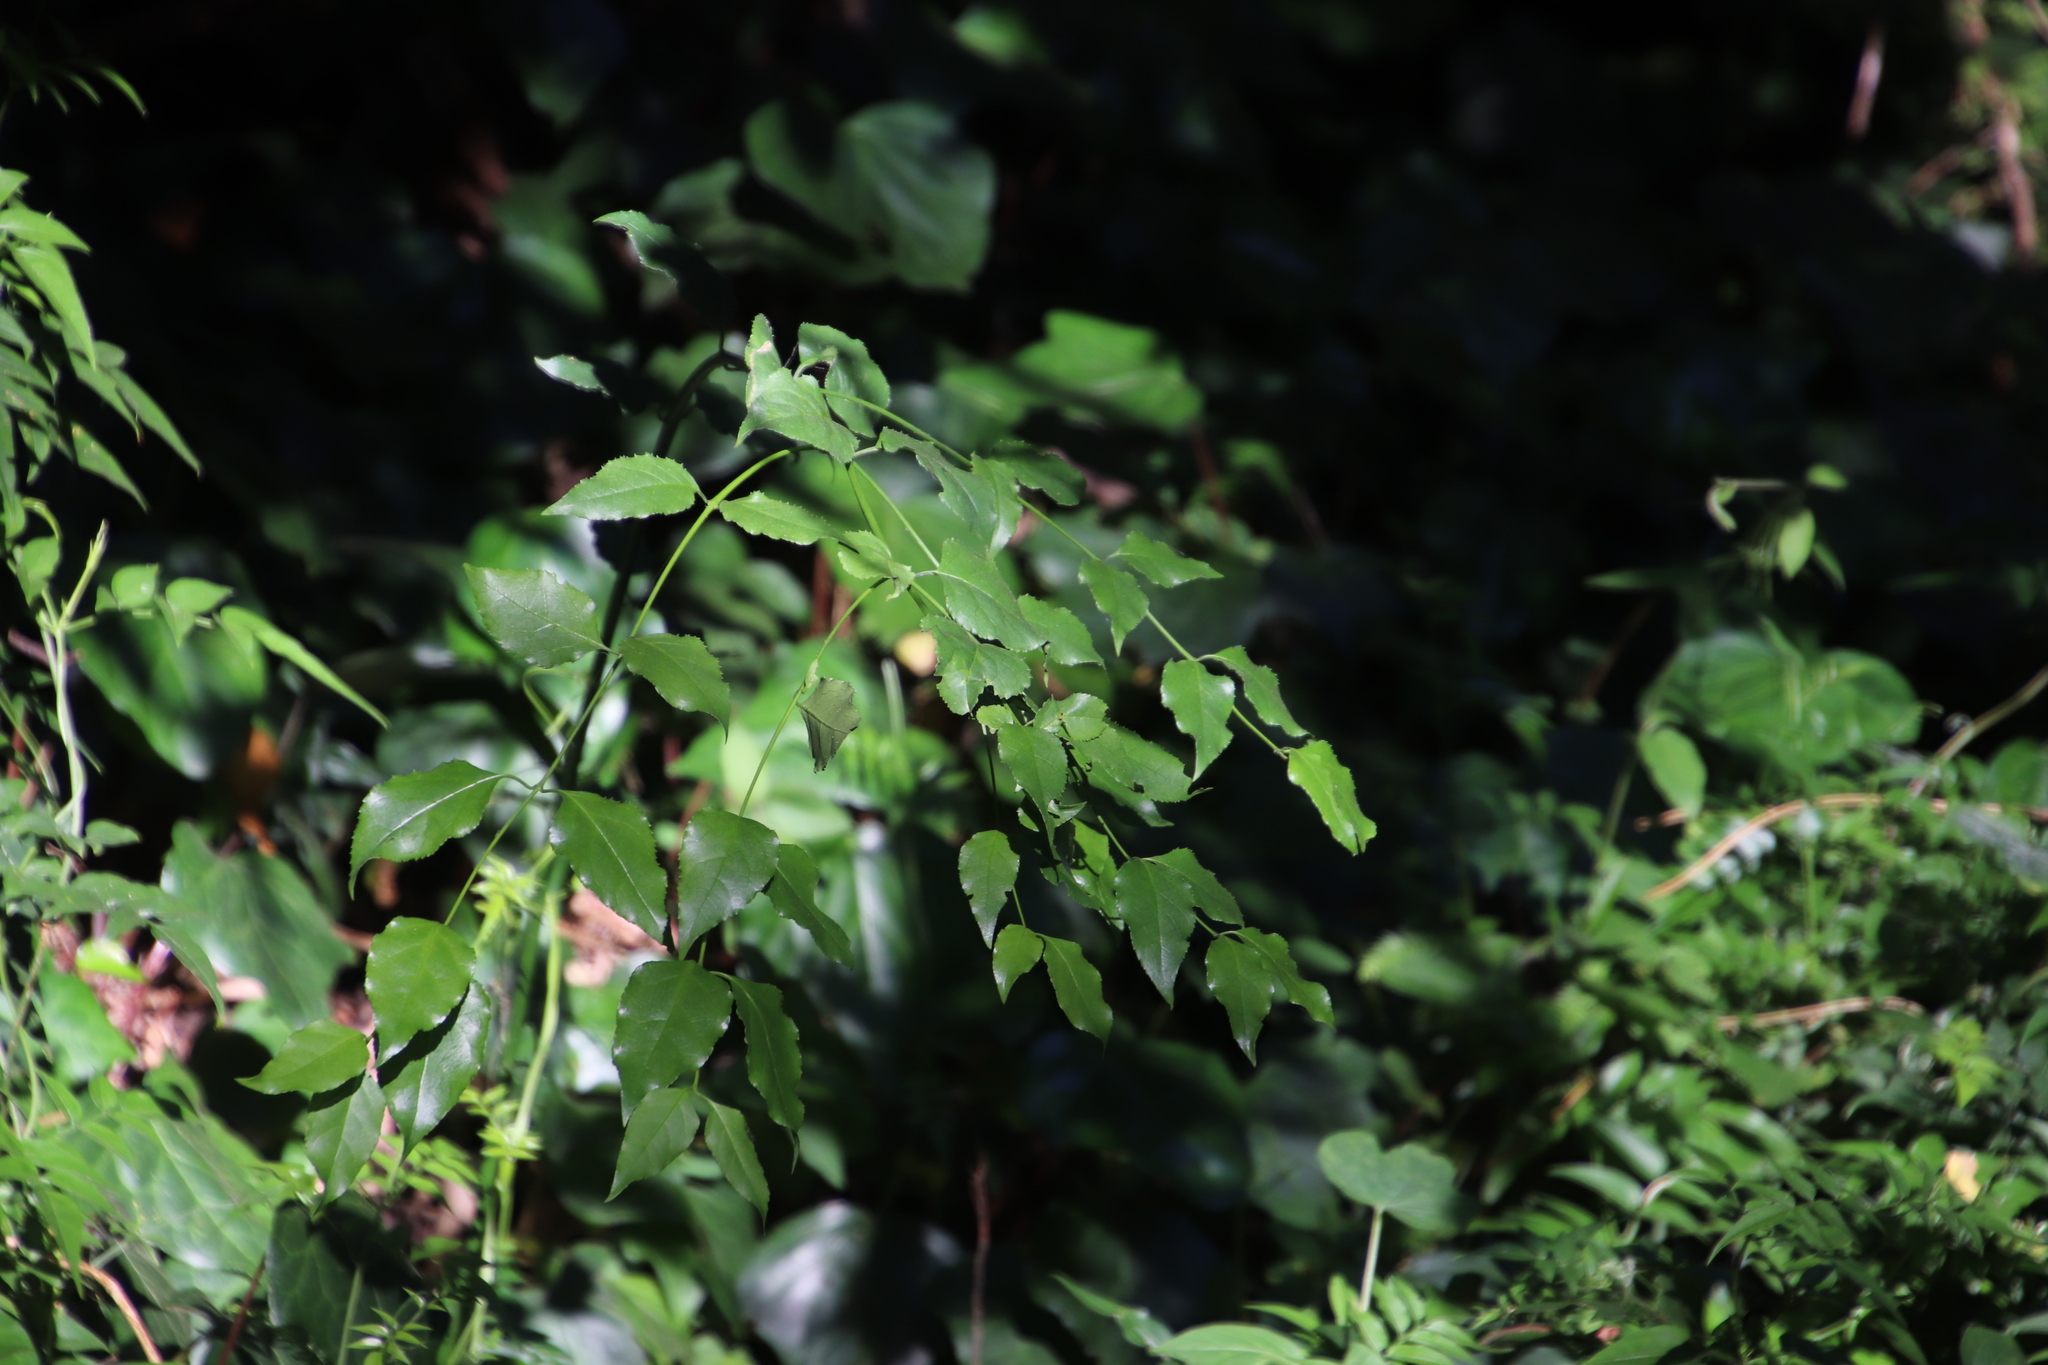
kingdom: Plantae
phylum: Tracheophyta
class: Magnoliopsida
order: Lamiales
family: Stilbaceae
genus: Halleria
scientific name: Halleria lucida
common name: Tree fuschia
